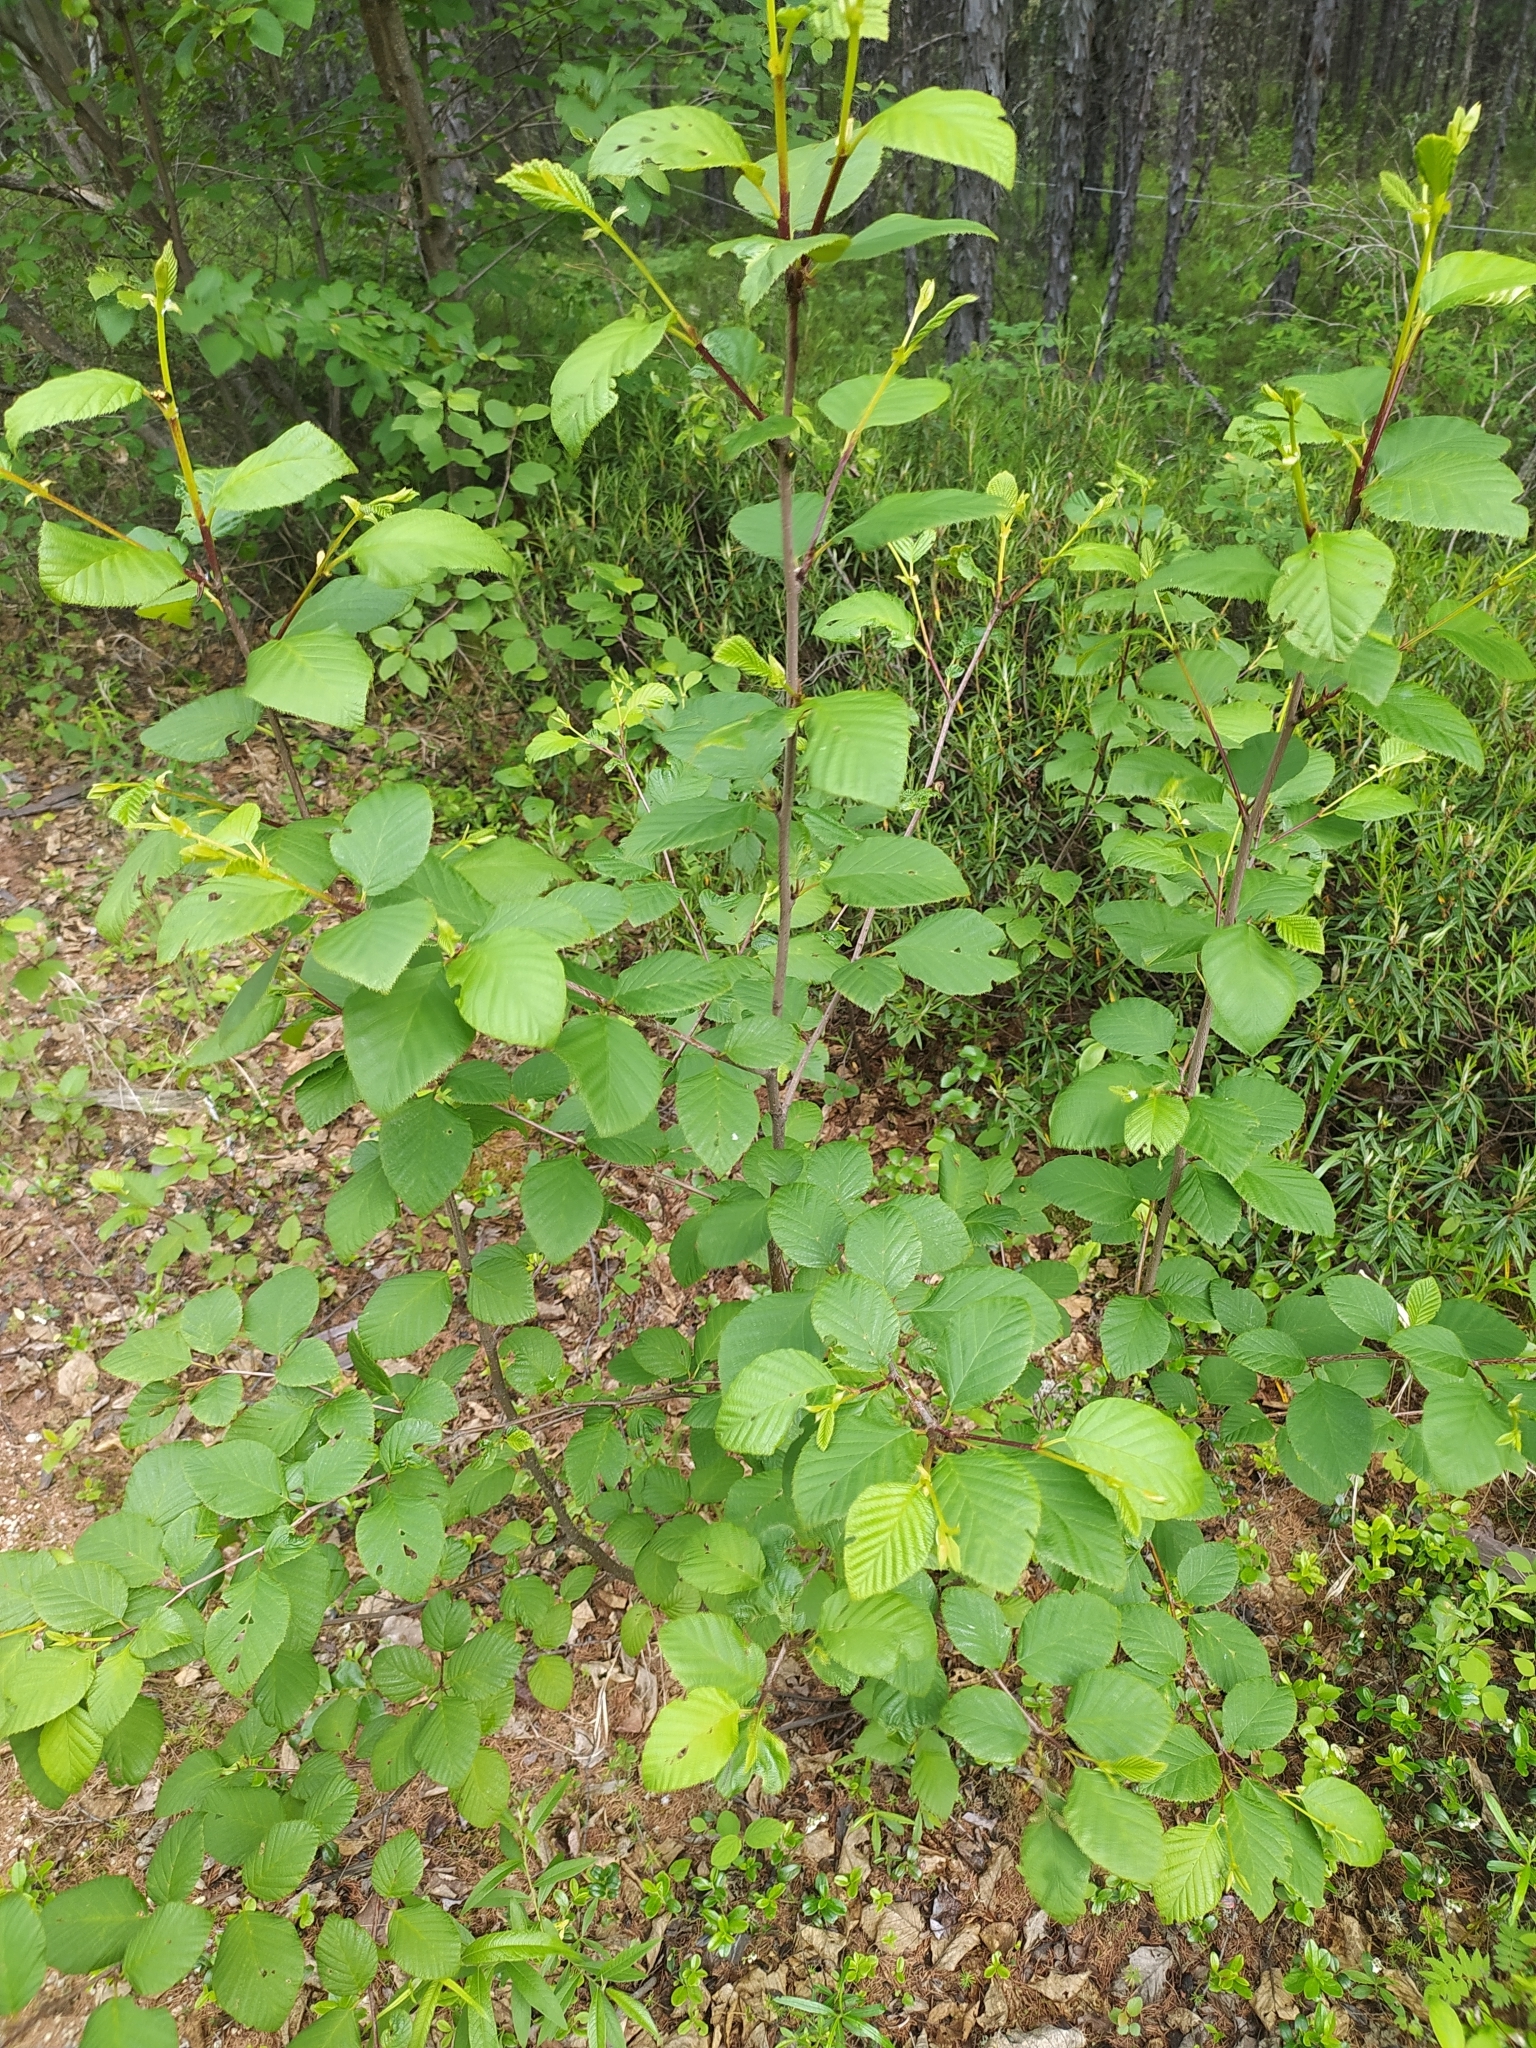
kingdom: Plantae
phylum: Tracheophyta
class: Magnoliopsida
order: Fagales
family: Betulaceae
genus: Alnus
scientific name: Alnus alnobetula
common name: Green alder
